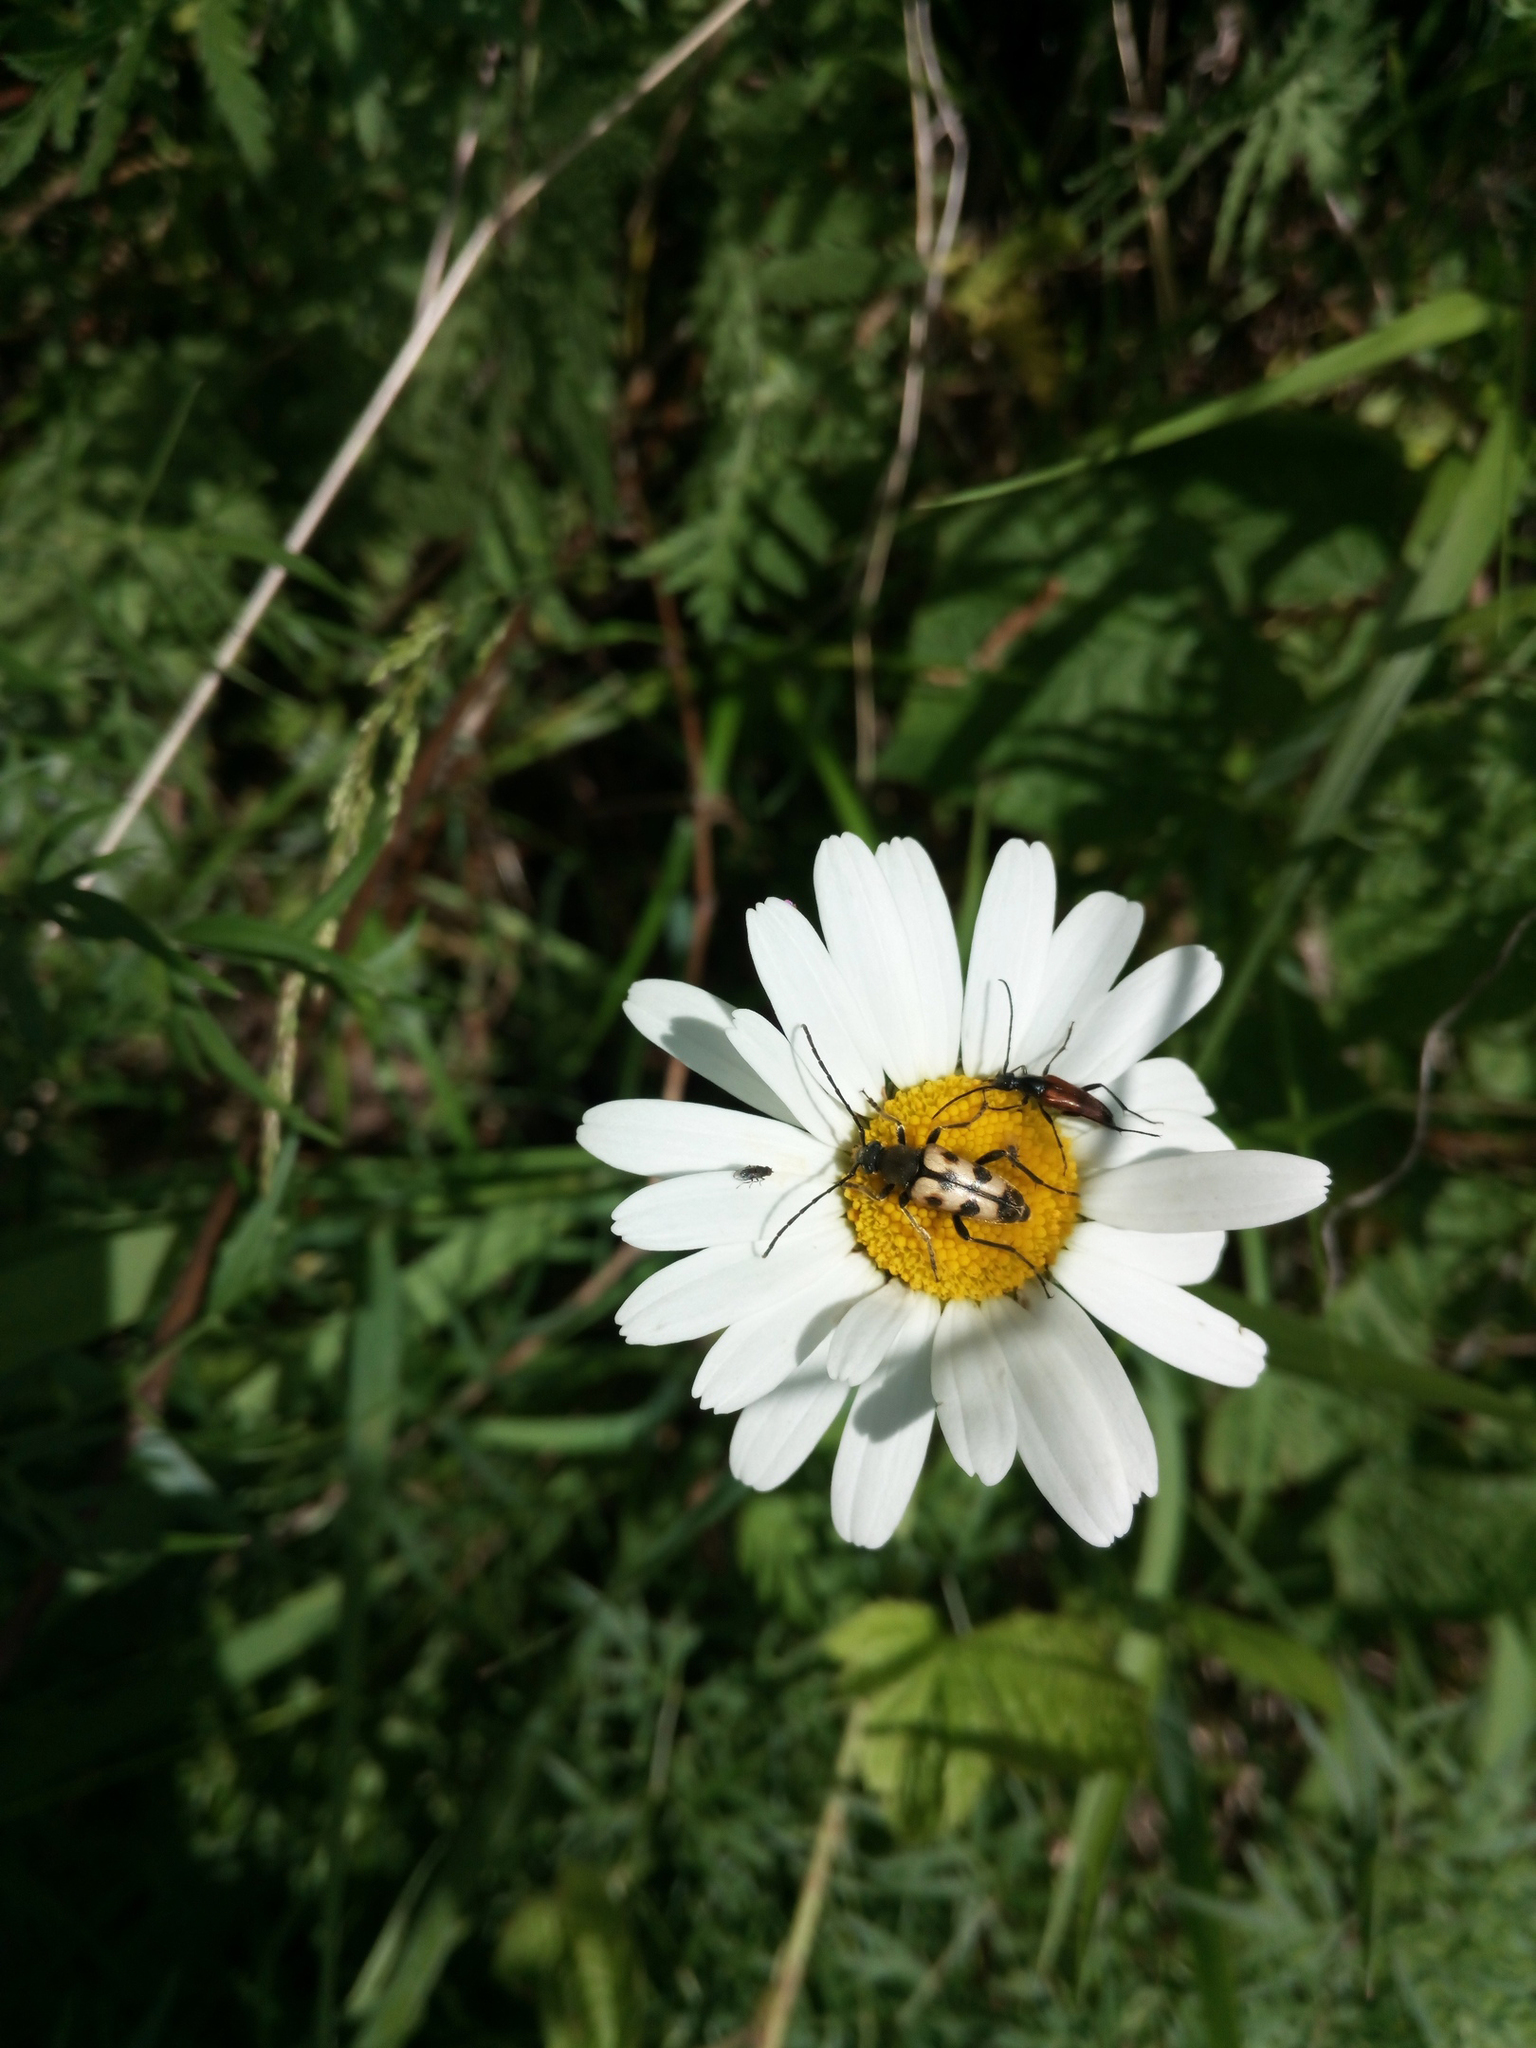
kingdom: Plantae
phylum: Tracheophyta
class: Magnoliopsida
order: Asterales
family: Asteraceae
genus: Leucanthemum
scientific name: Leucanthemum vulgare
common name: Oxeye daisy
